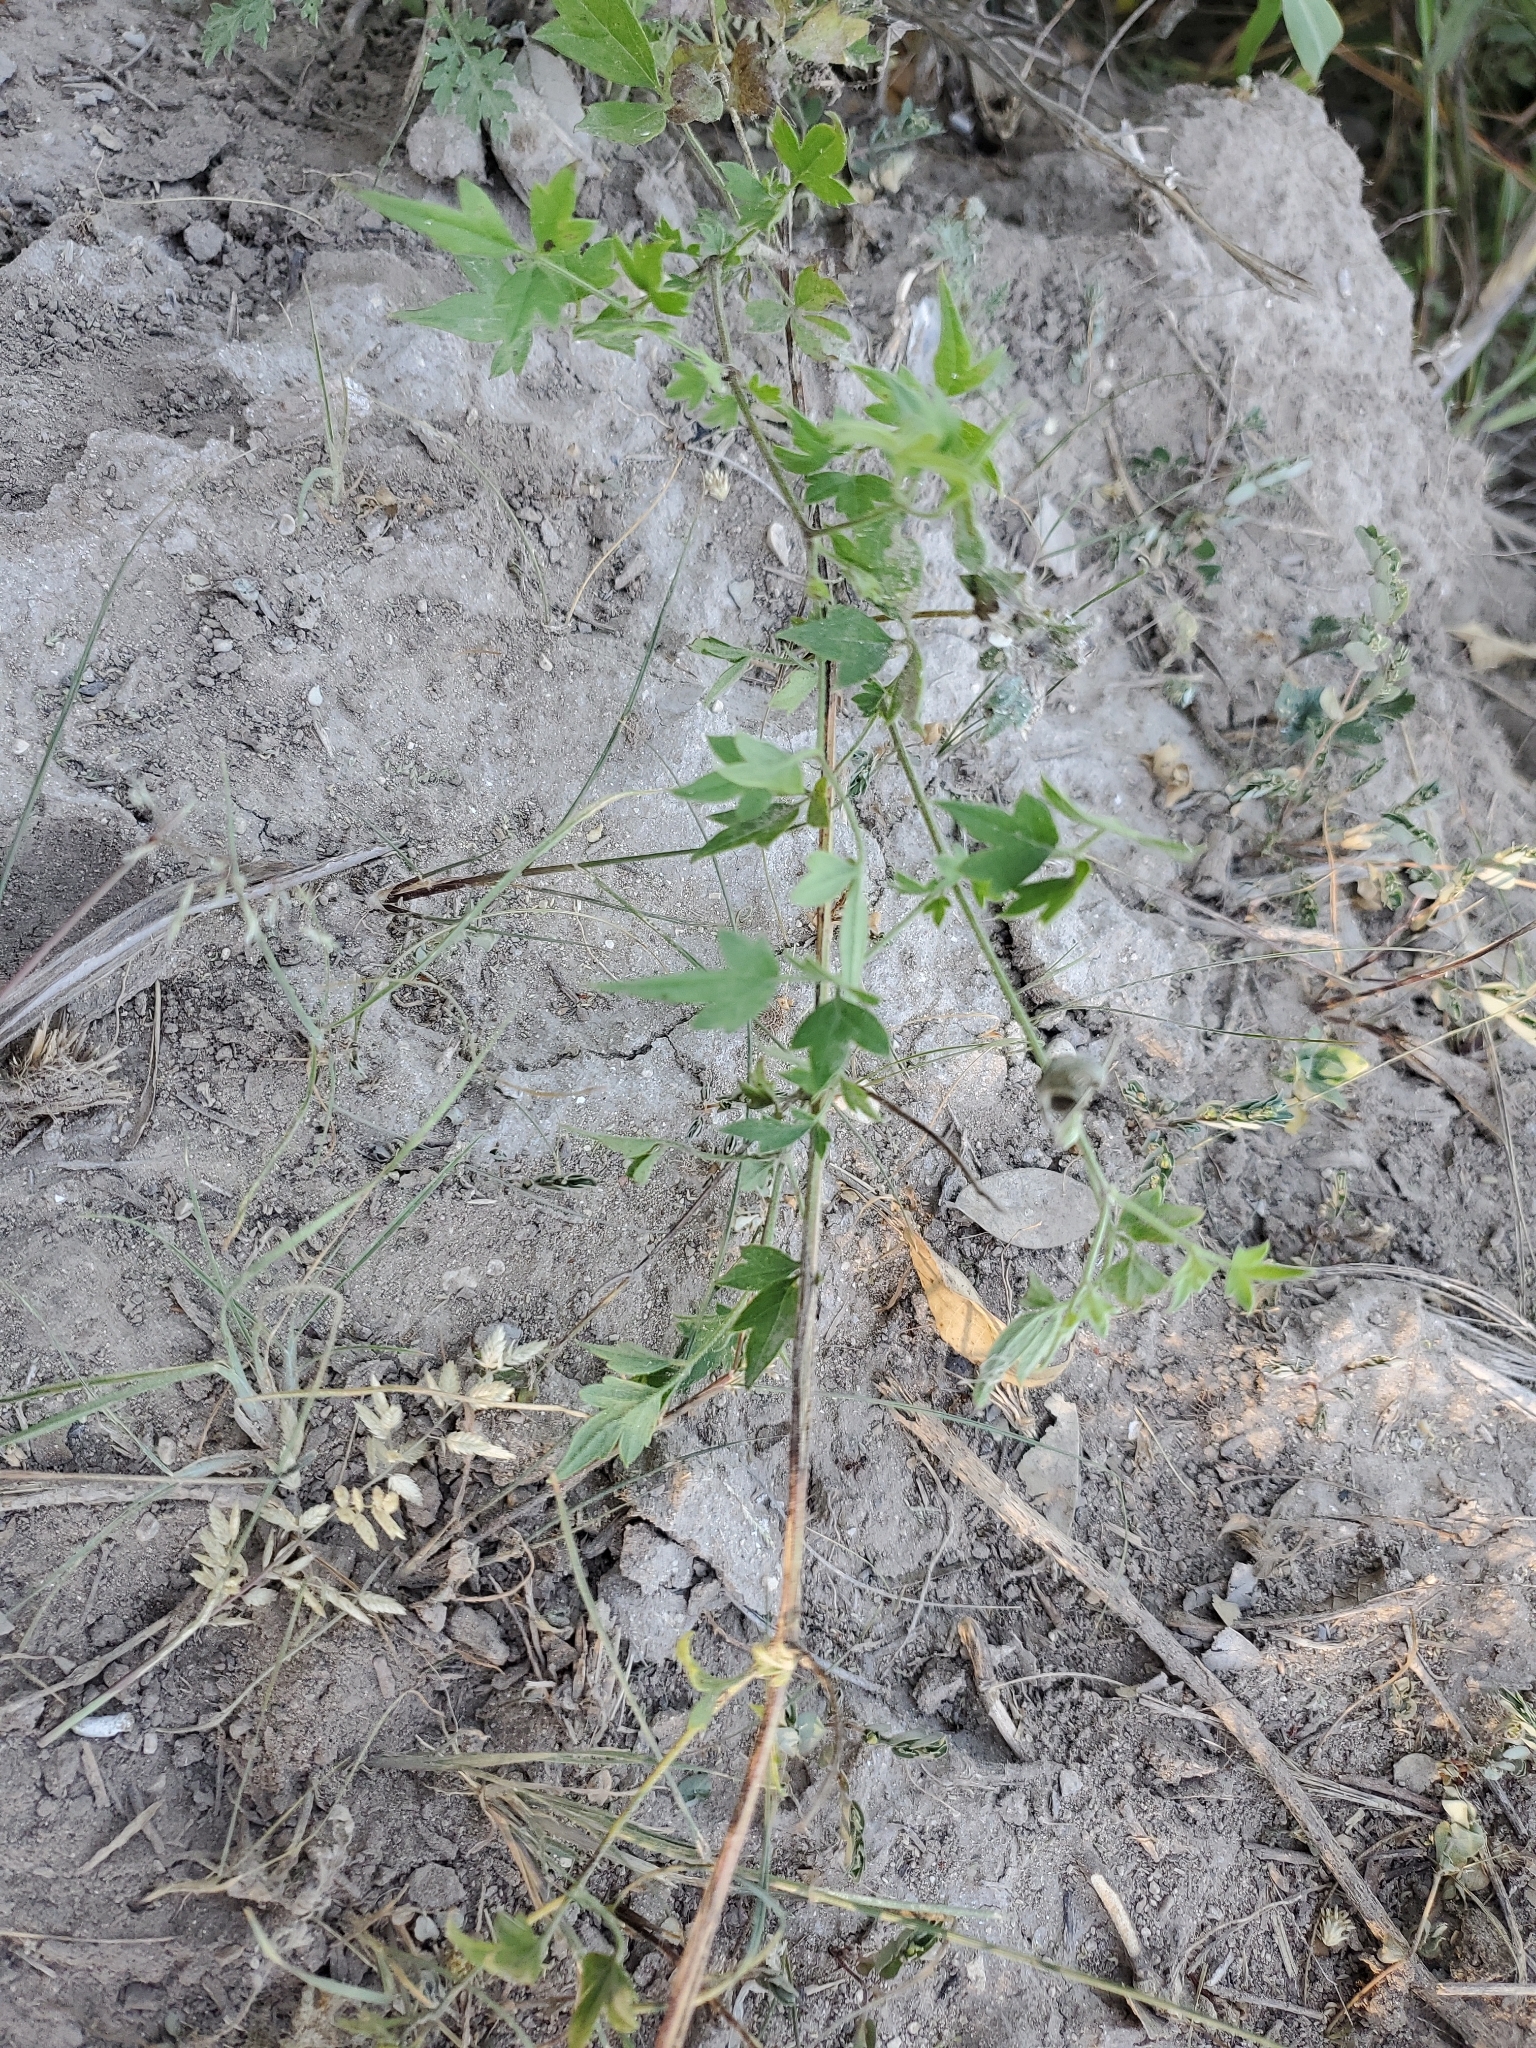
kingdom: Plantae
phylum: Tracheophyta
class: Magnoliopsida
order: Ranunculales
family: Ranunculaceae
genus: Clematis
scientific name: Clematis drummondii
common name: Texas virgin's bower
